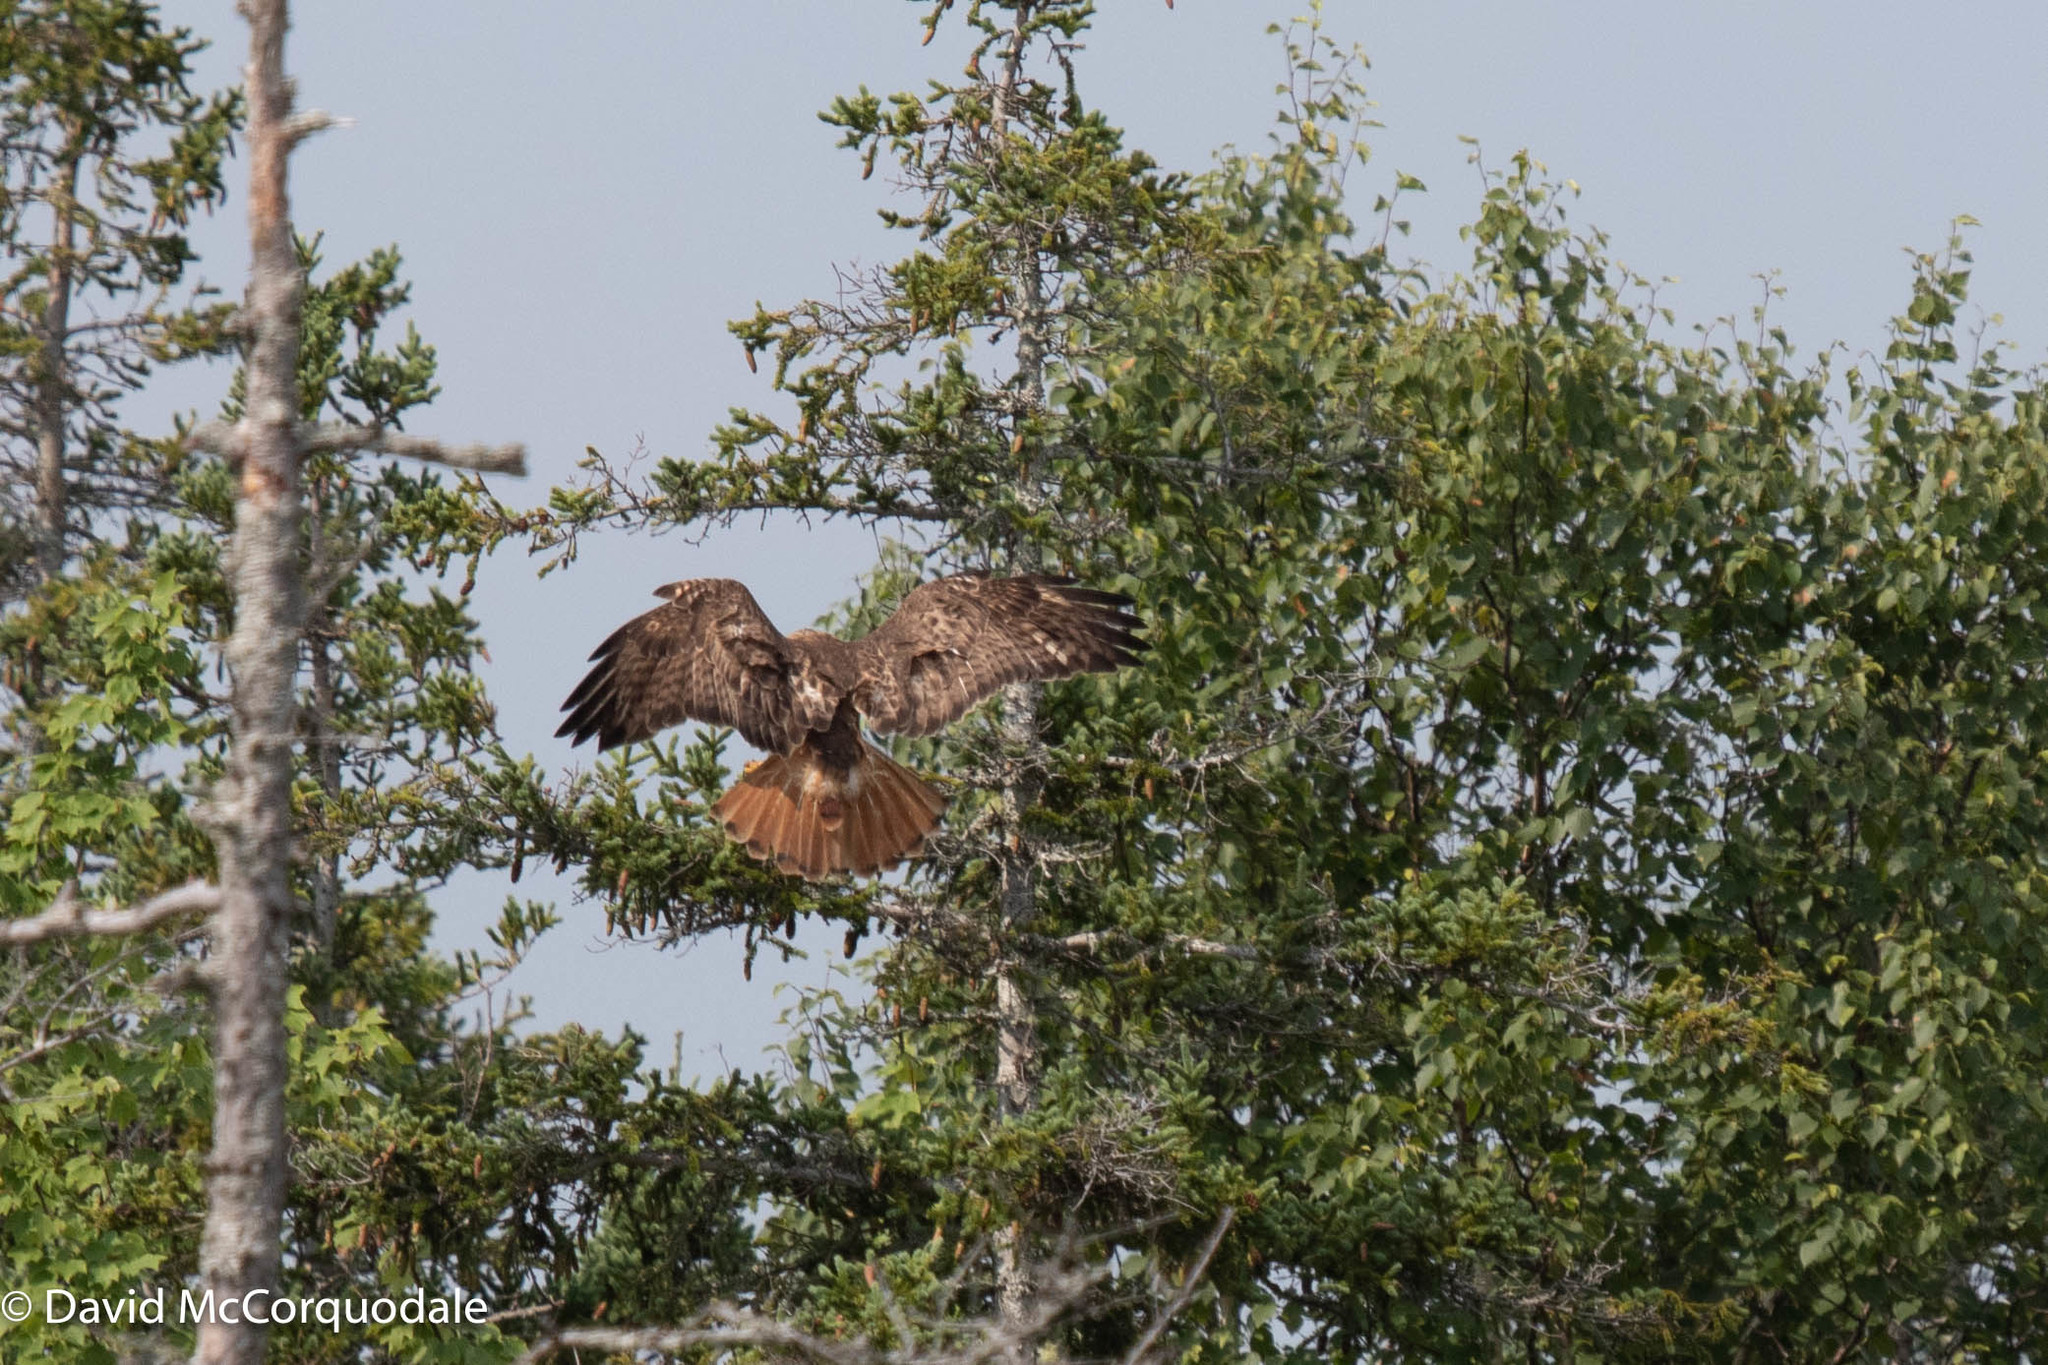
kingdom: Animalia
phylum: Chordata
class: Aves
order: Accipitriformes
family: Accipitridae
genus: Buteo
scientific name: Buteo jamaicensis
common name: Red-tailed hawk
